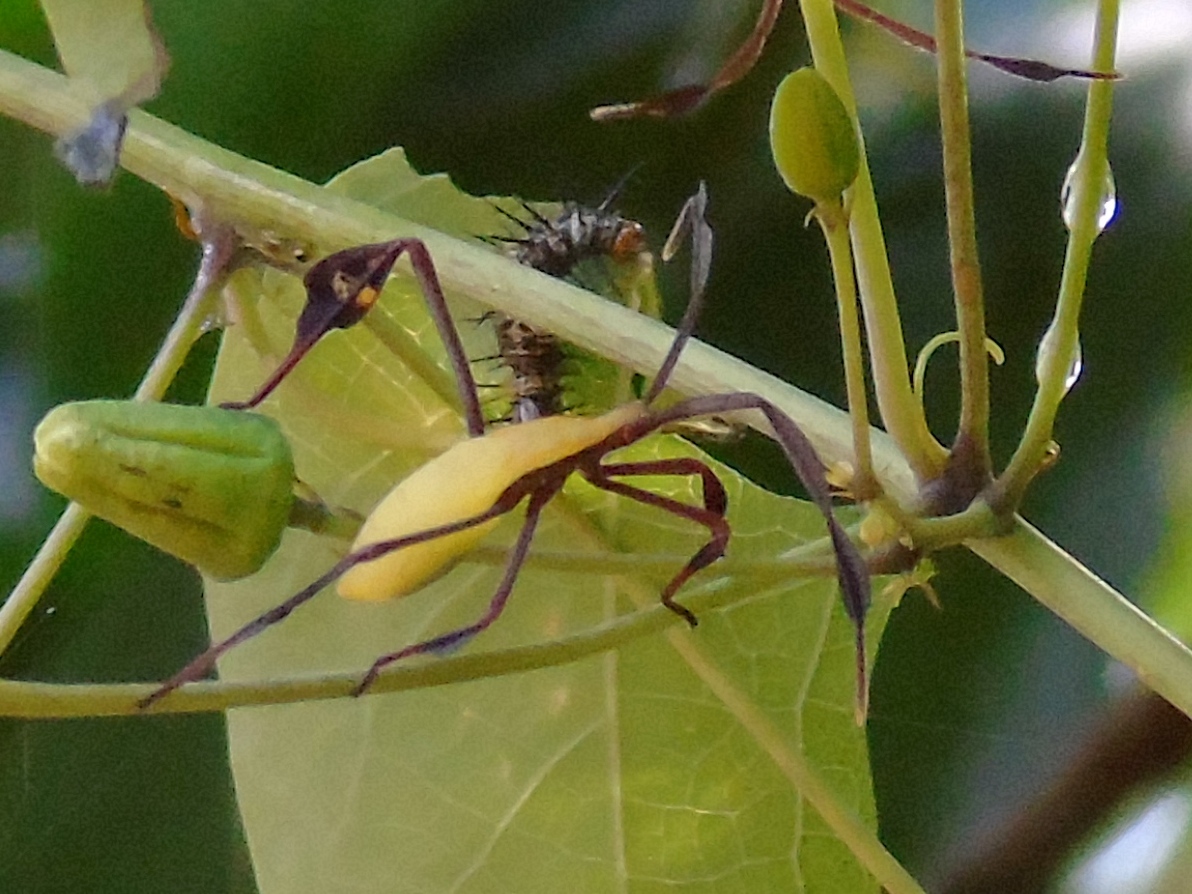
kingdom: Animalia
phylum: Arthropoda
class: Insecta
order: Hemiptera
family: Coreidae
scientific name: Coreidae
